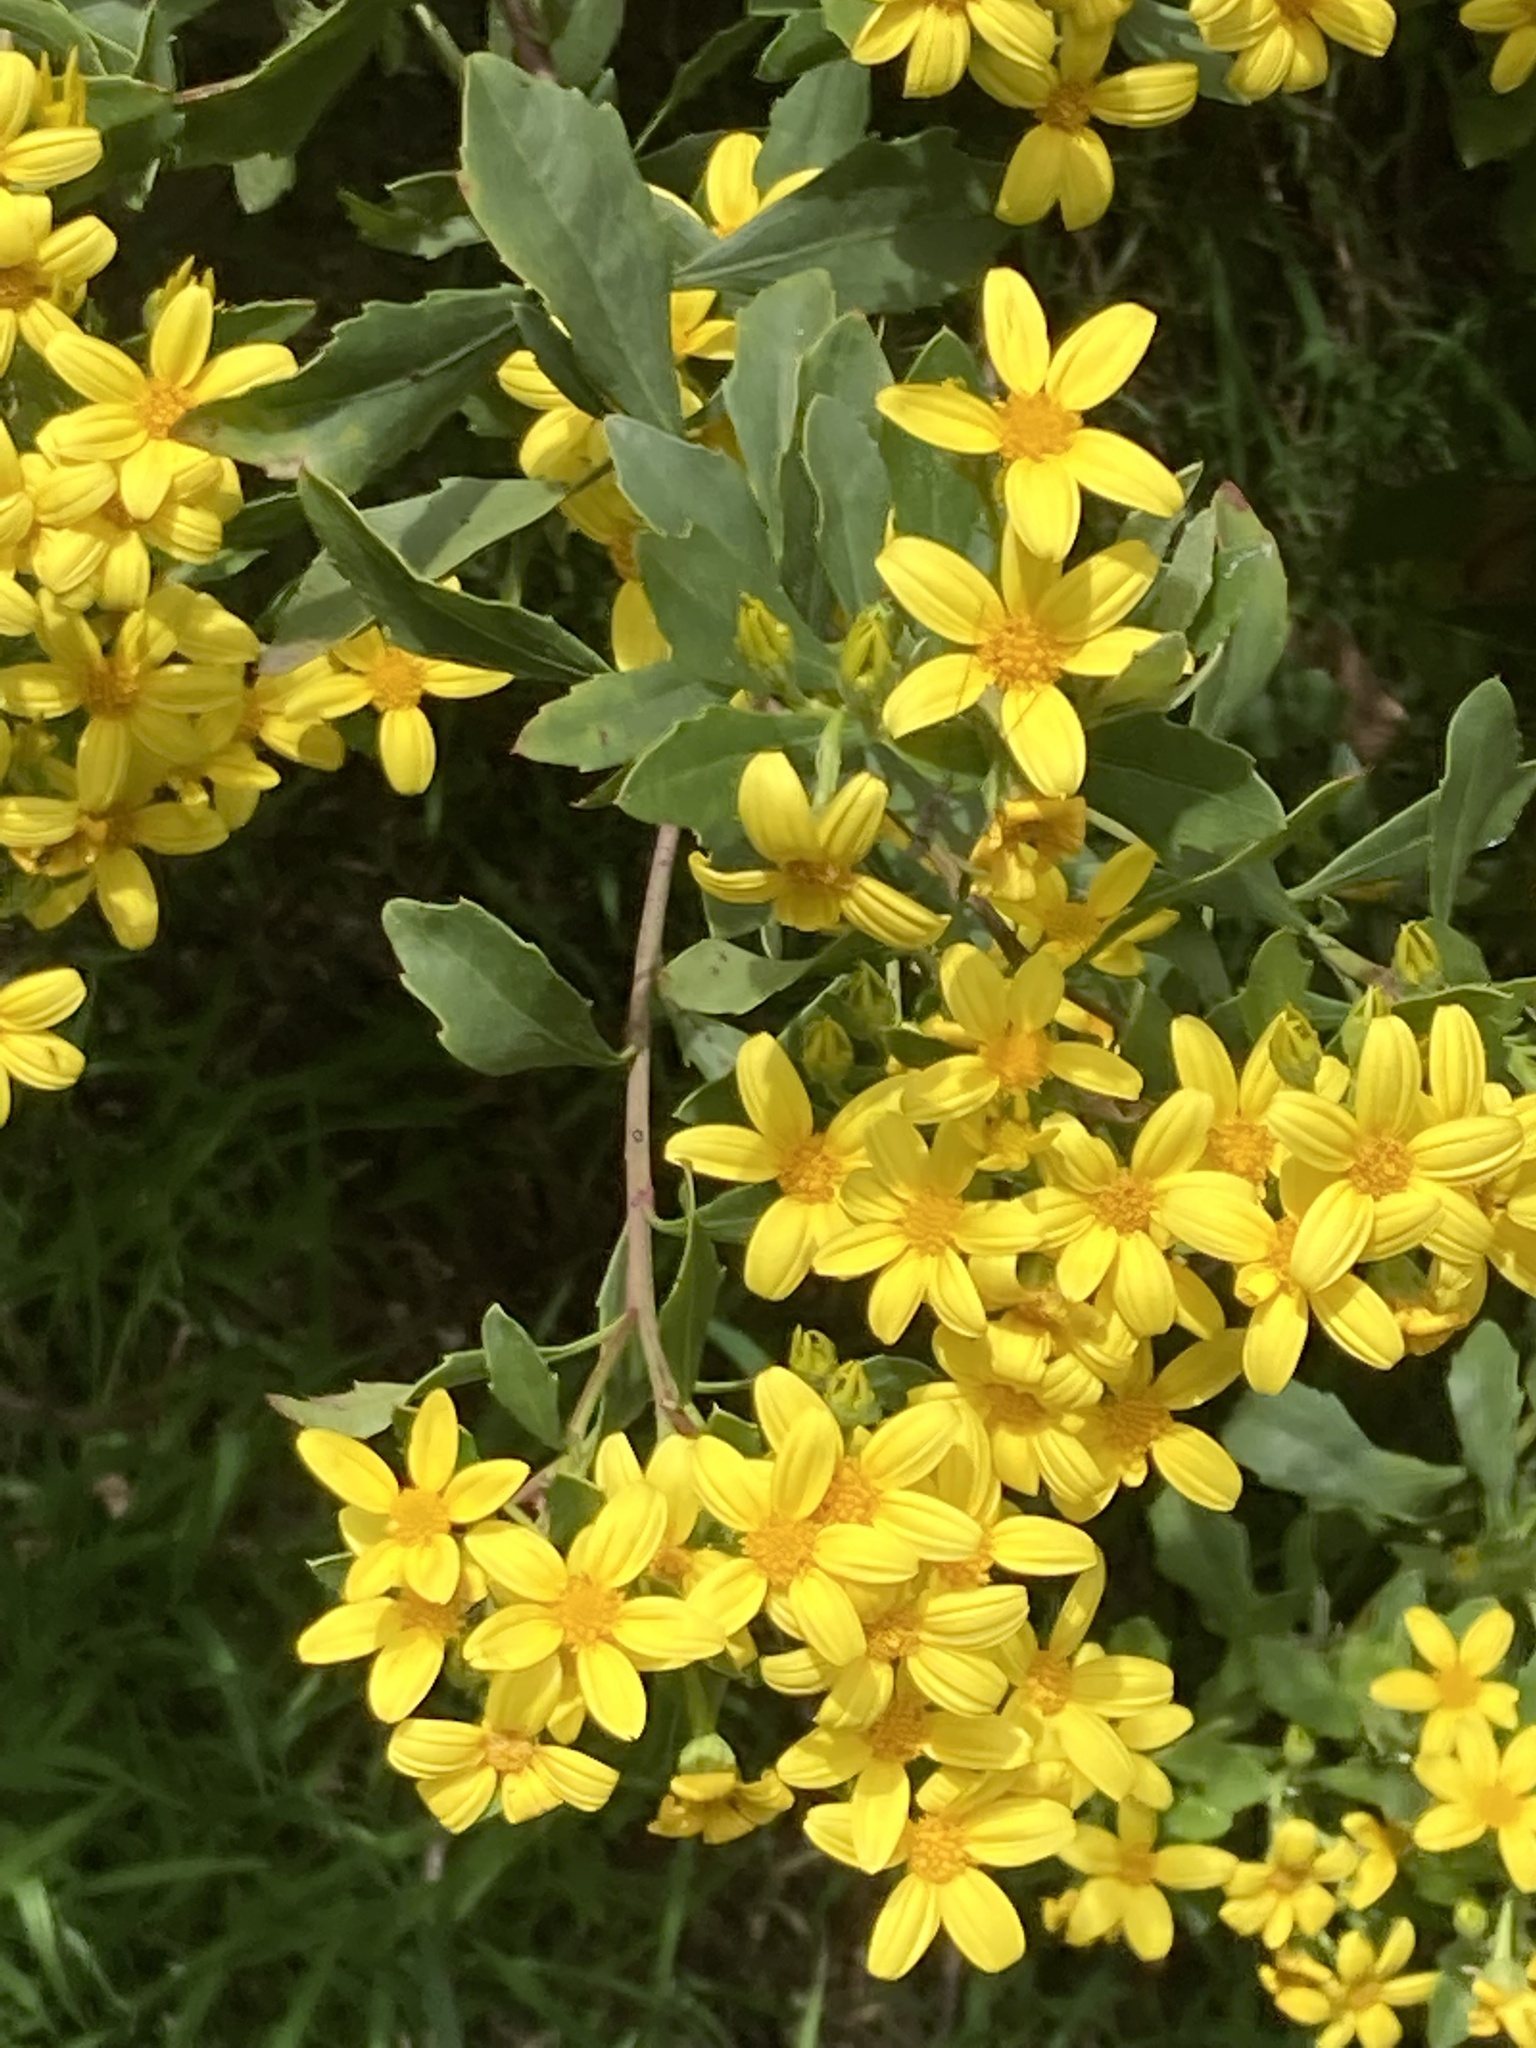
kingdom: Plantae
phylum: Tracheophyta
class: Magnoliopsida
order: Asterales
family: Asteraceae
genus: Osteospermum
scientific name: Osteospermum moniliferum
